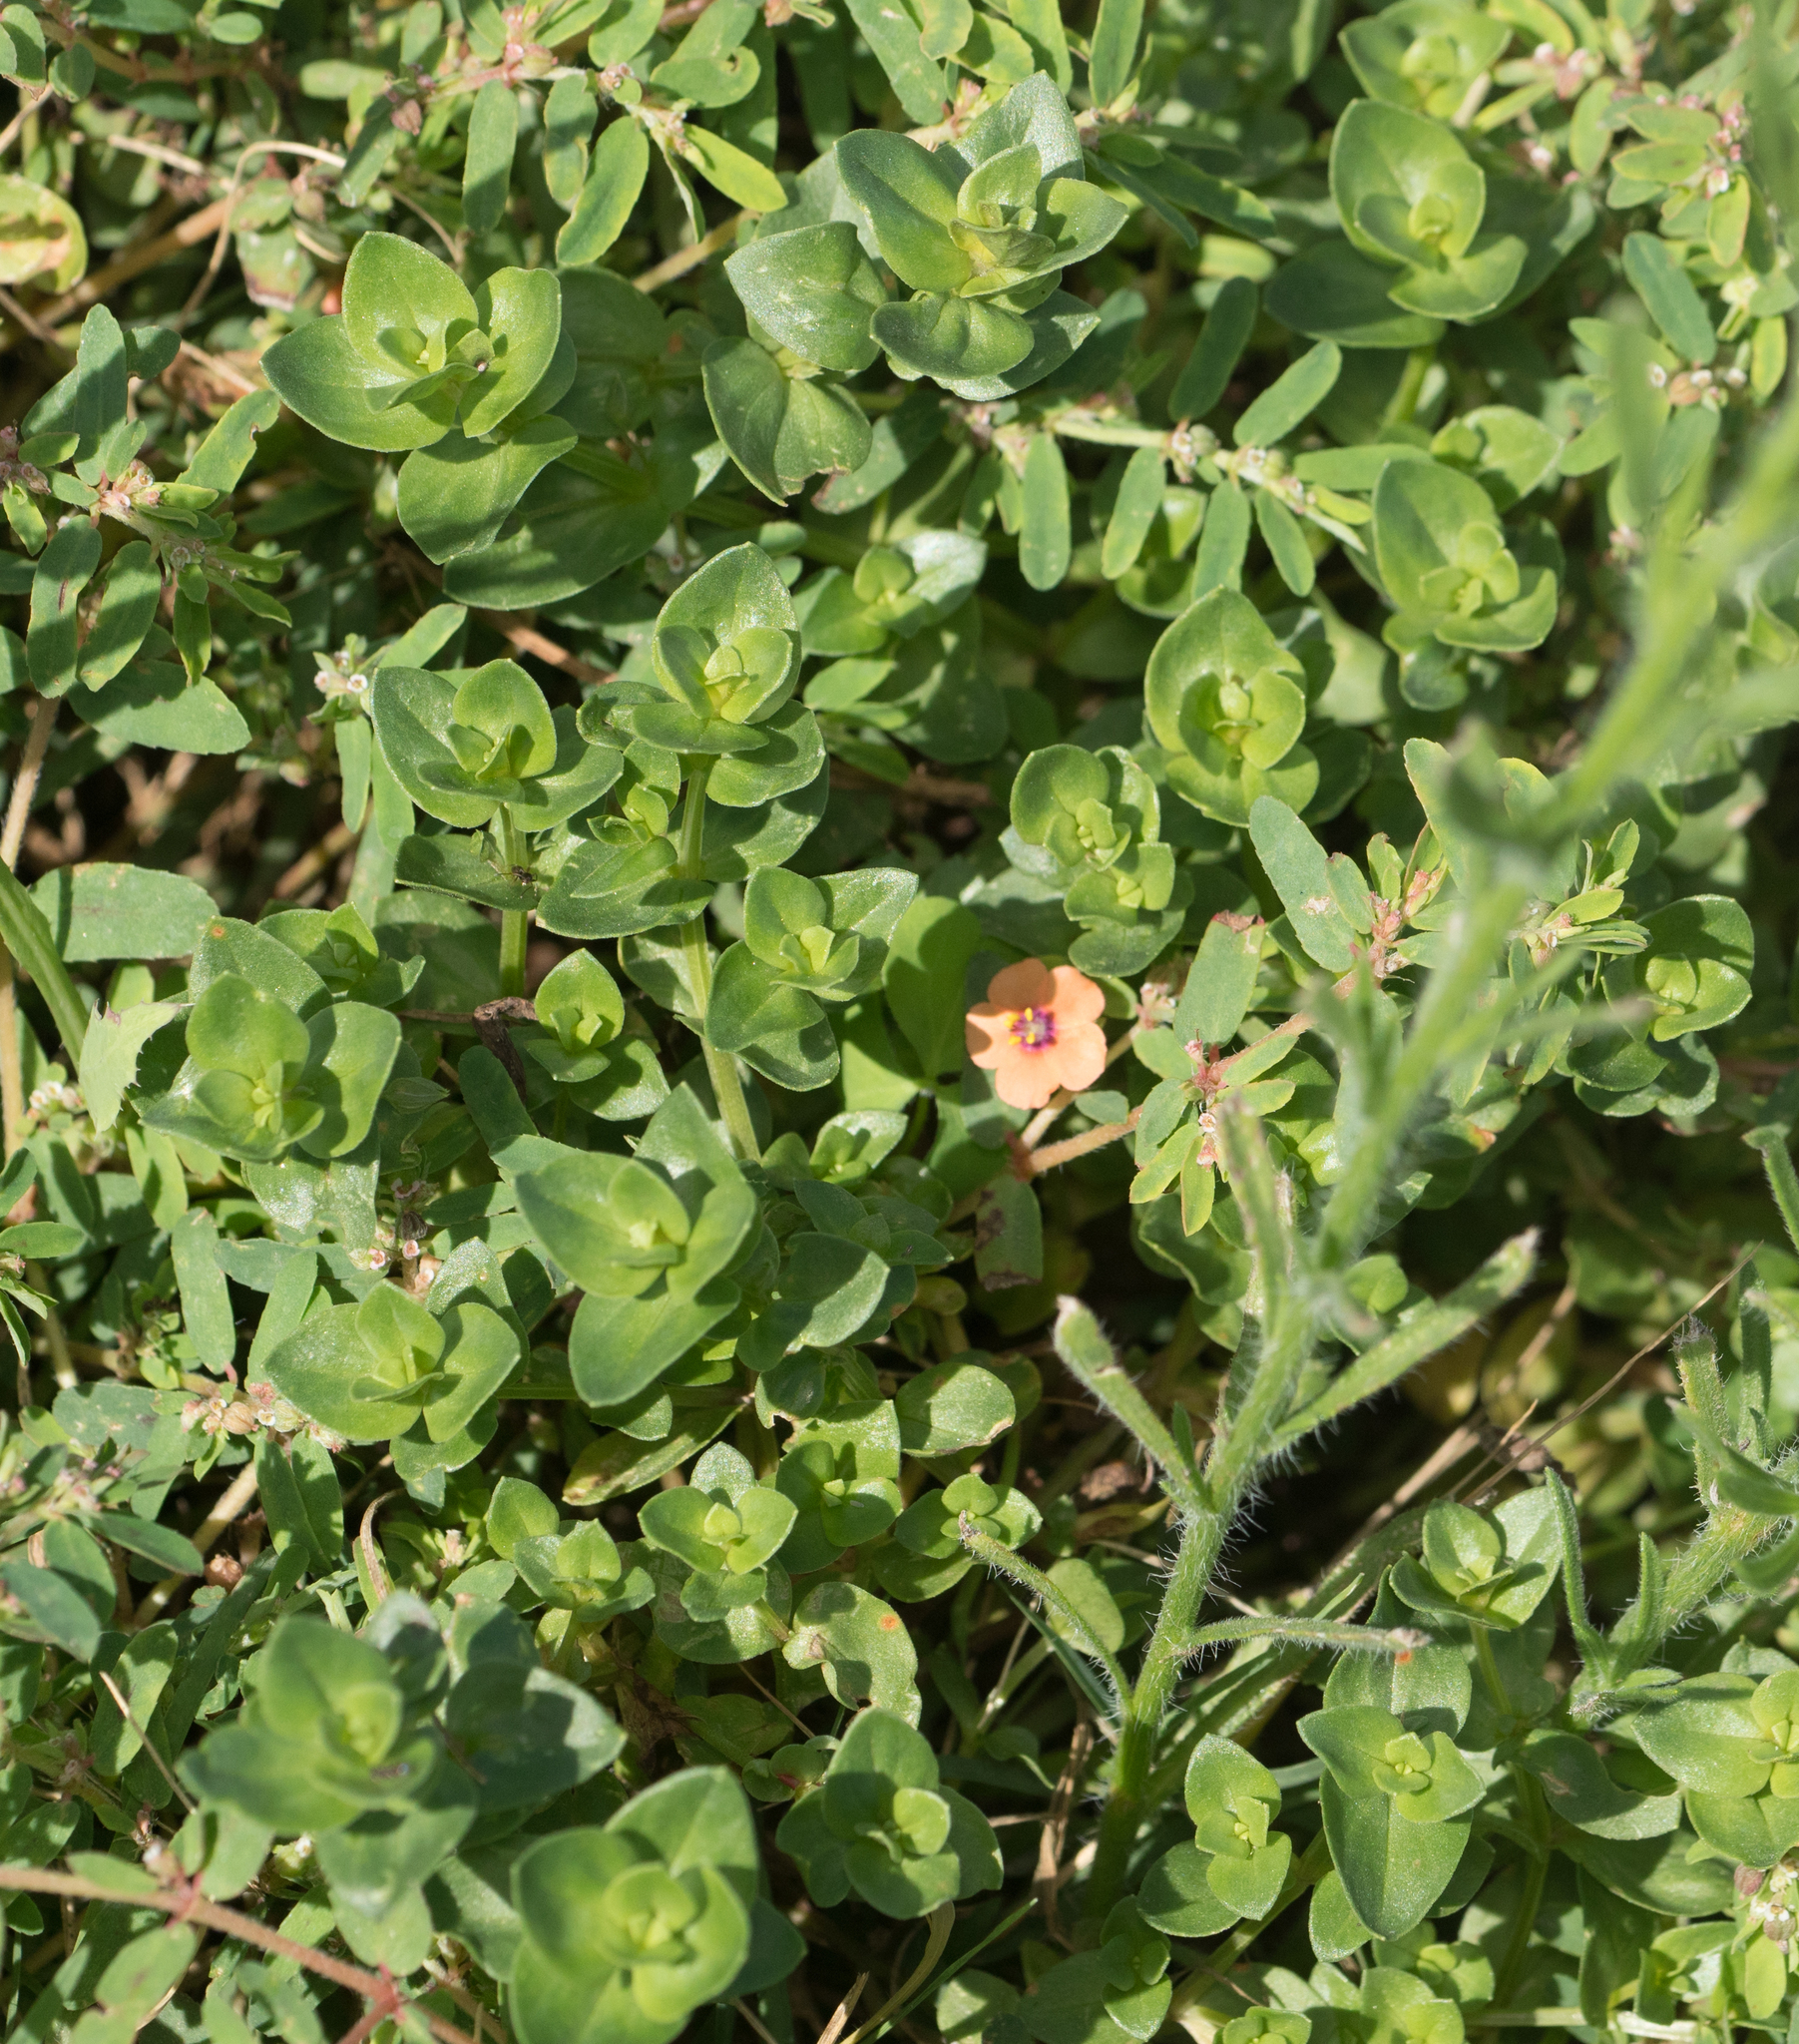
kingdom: Plantae
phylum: Tracheophyta
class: Magnoliopsida
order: Ericales
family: Primulaceae
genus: Lysimachia
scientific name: Lysimachia arvensis
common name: Scarlet pimpernel
